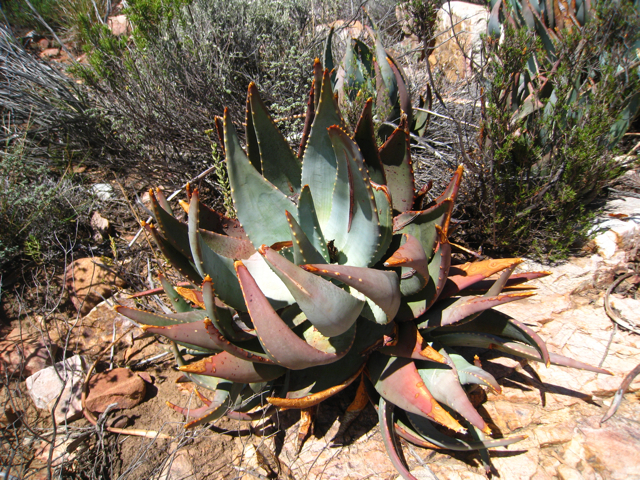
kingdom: Plantae
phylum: Tracheophyta
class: Liliopsida
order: Asparagales
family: Asphodelaceae
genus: Aloe
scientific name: Aloe comptonii
